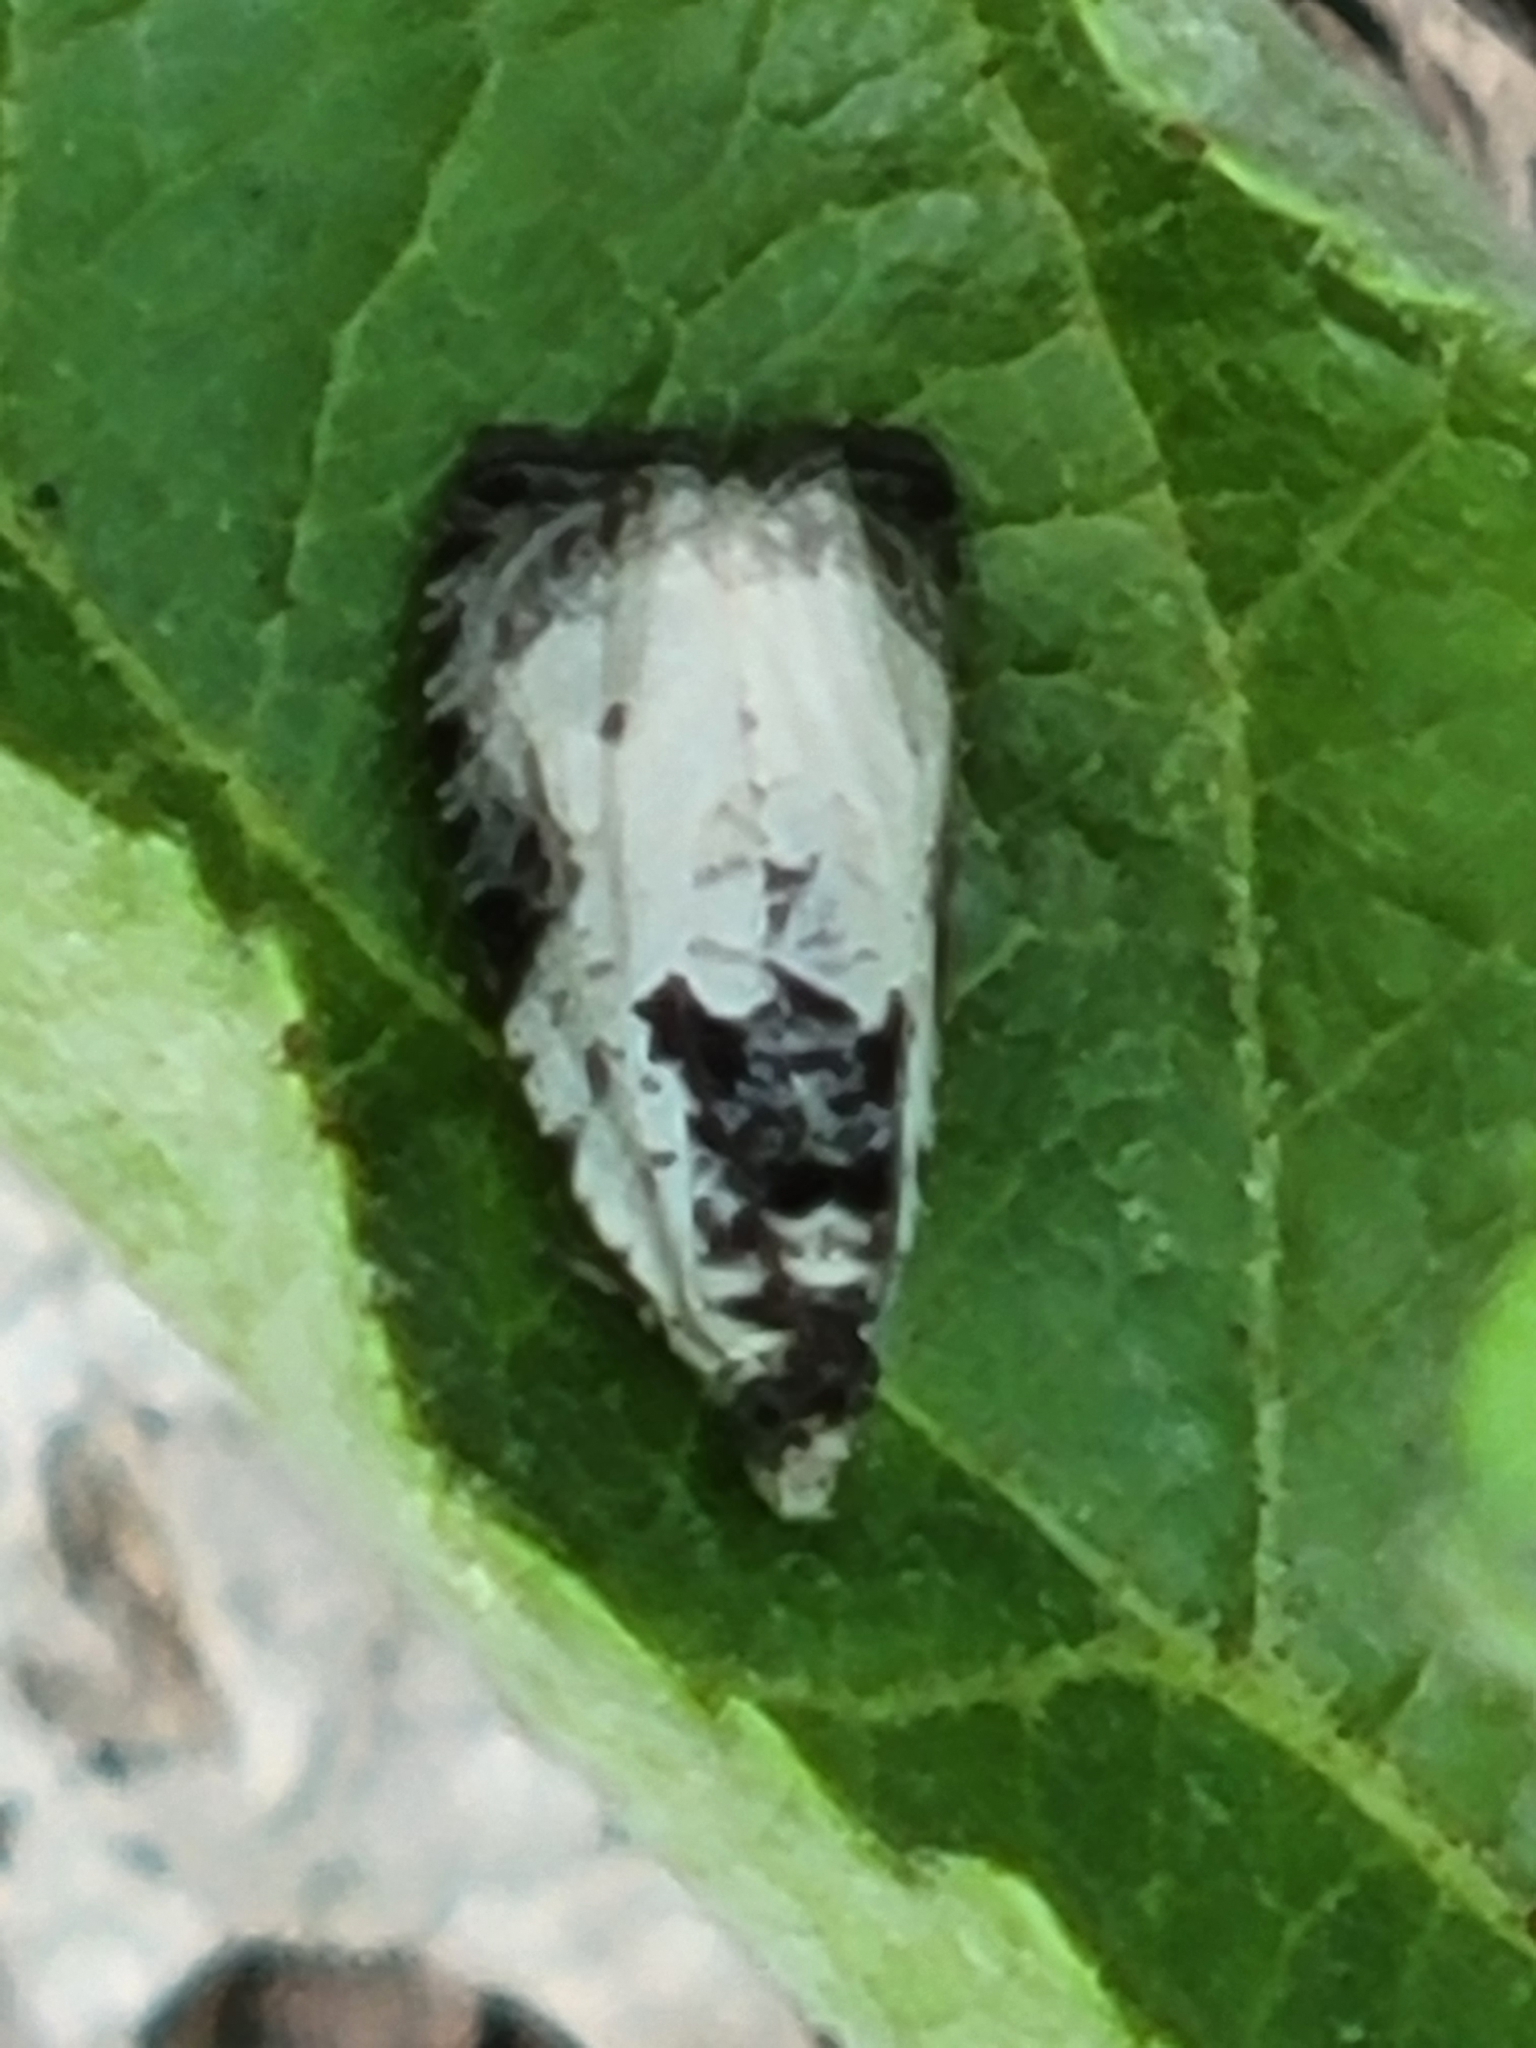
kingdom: Animalia
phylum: Arthropoda
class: Insecta
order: Lepidoptera
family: Tortricidae
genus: Olethreutes
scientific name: Olethreutes malana
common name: Malana leafroller moth
